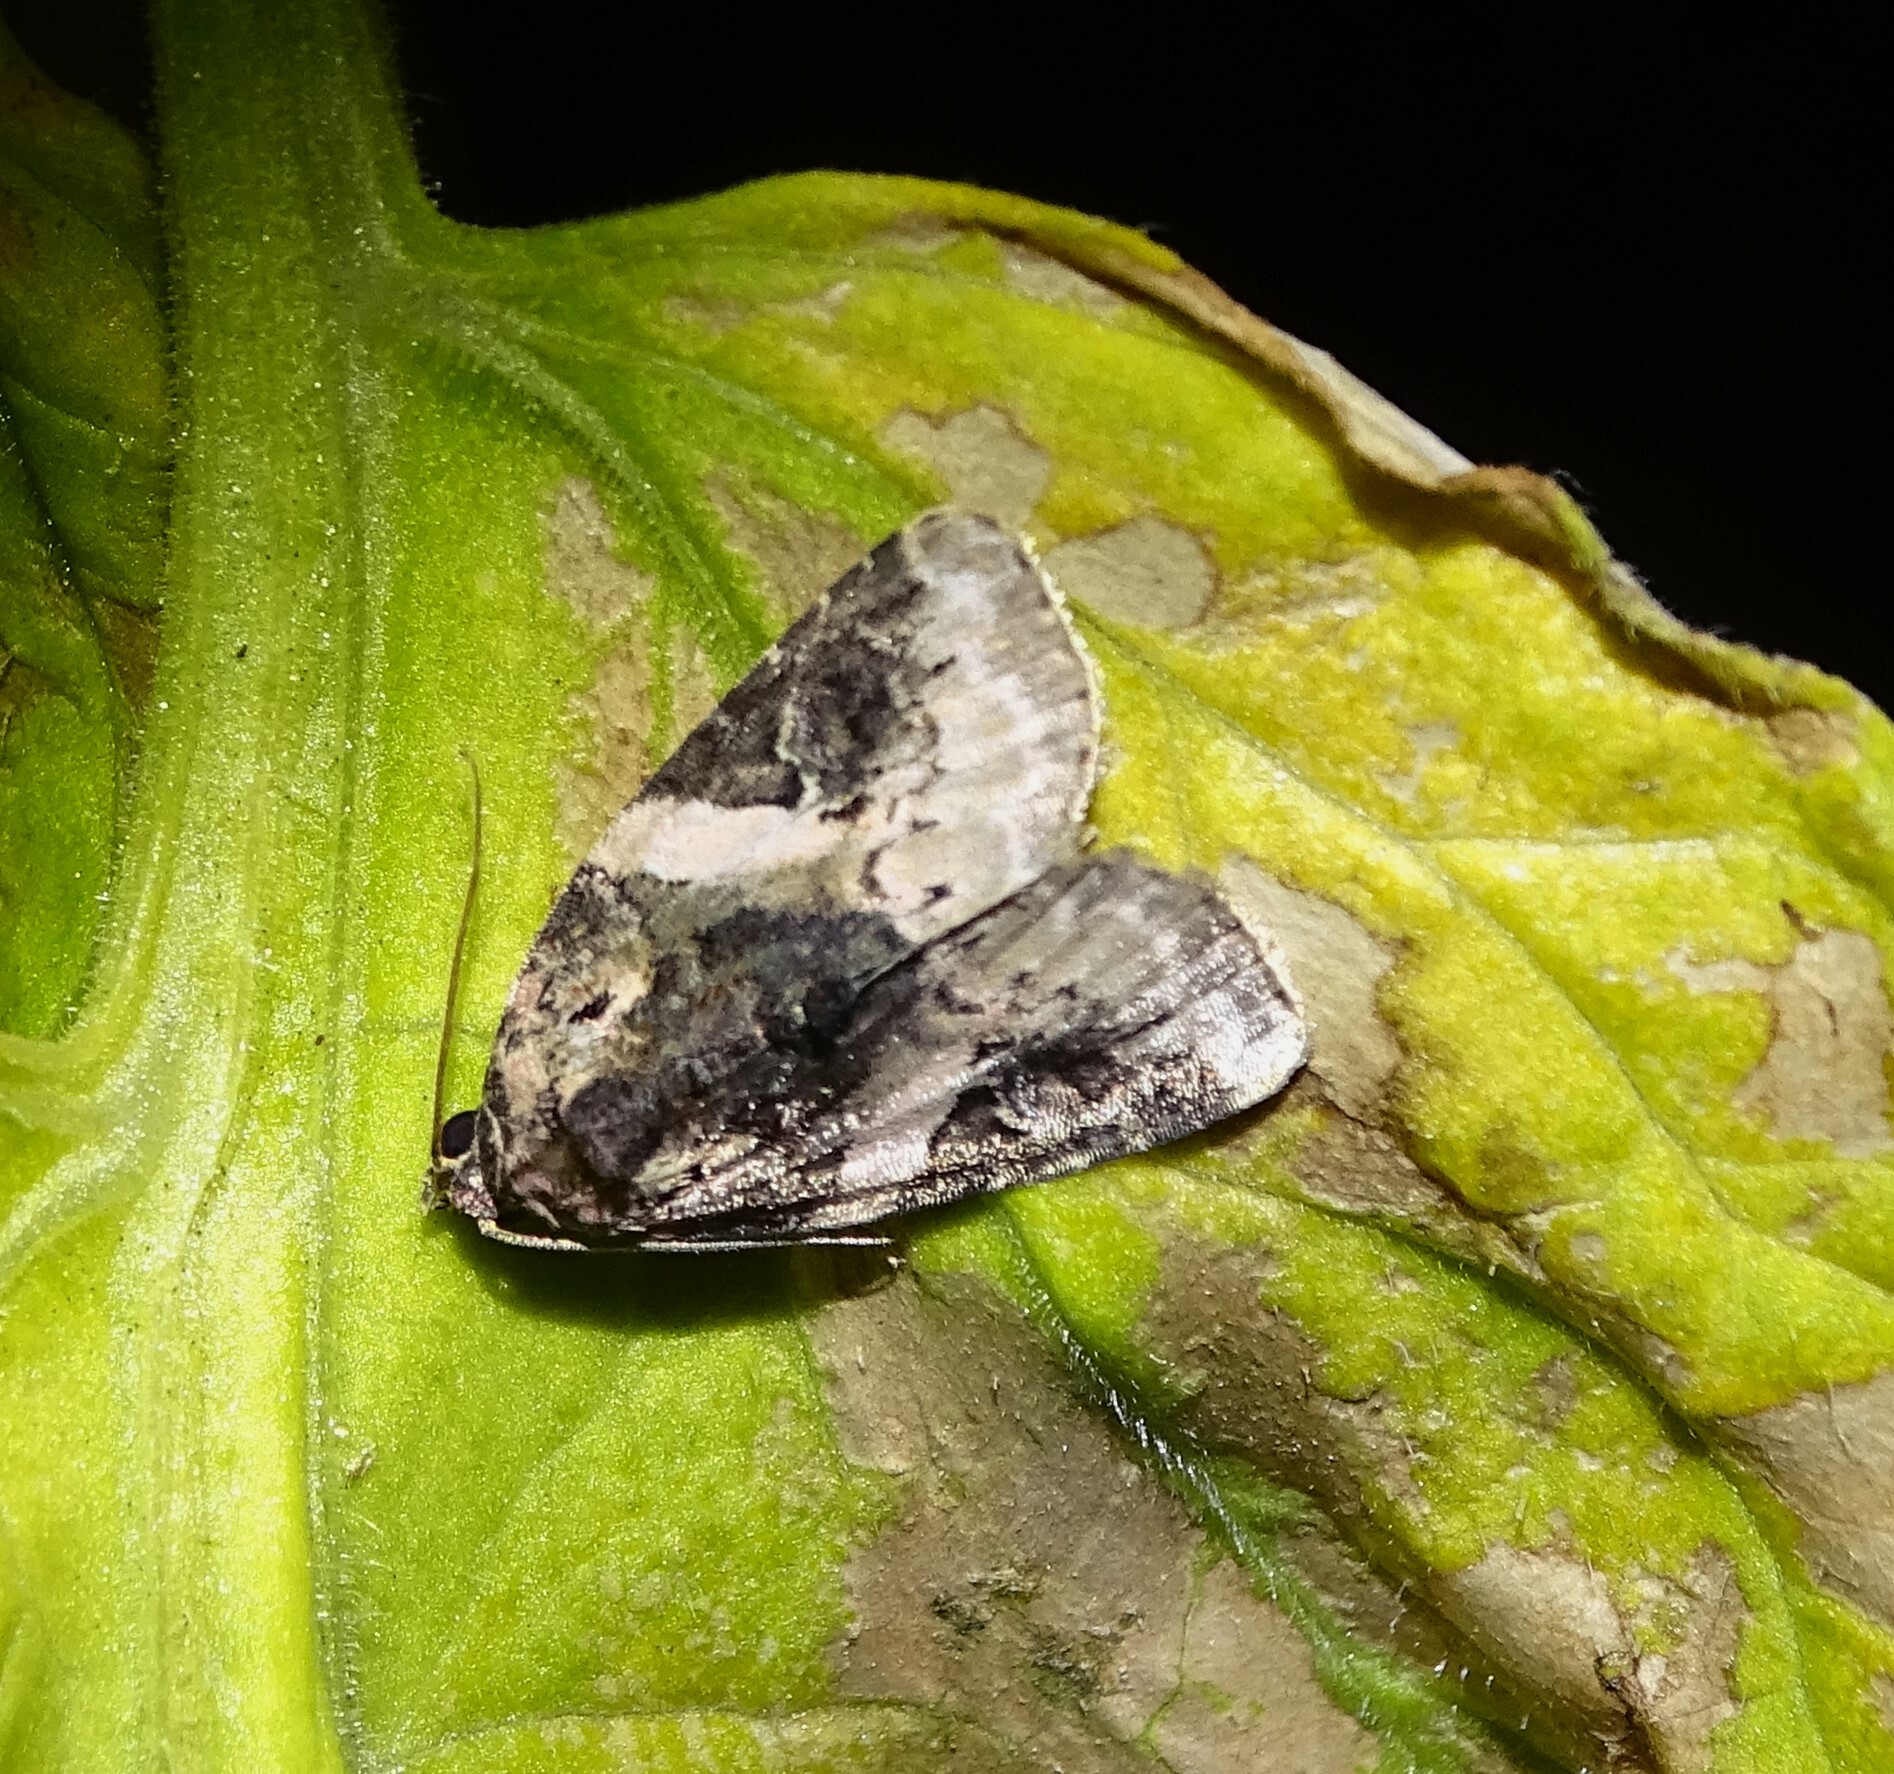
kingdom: Animalia
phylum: Arthropoda
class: Insecta
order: Lepidoptera
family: Noctuidae
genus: Pseudeustrotia
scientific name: Pseudeustrotia carneola
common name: Pink-barred lithacodia moth
